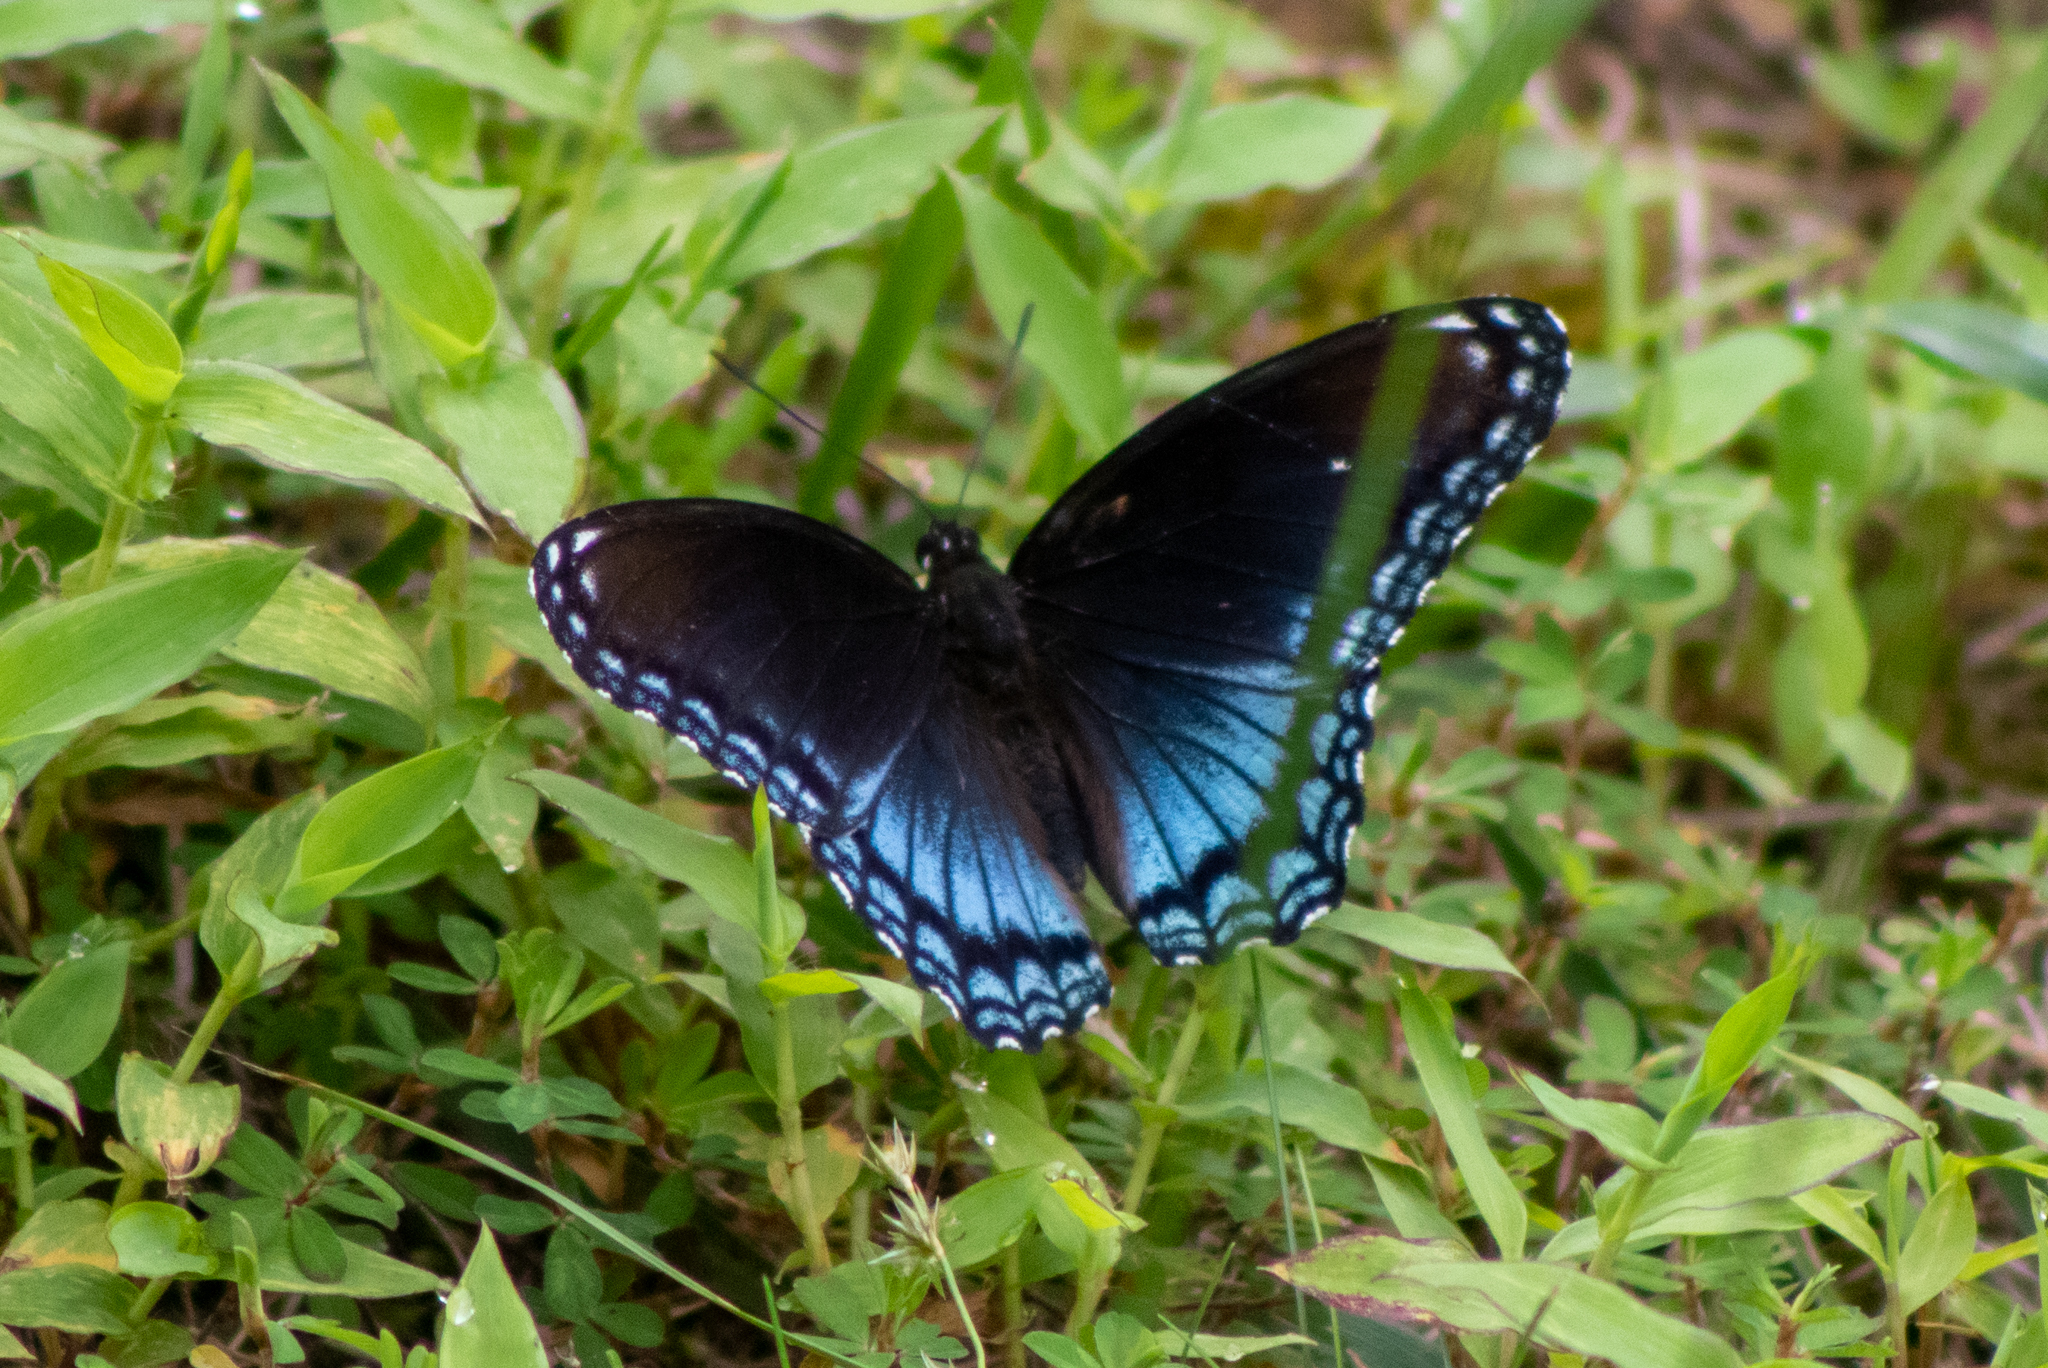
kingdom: Animalia
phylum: Arthropoda
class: Insecta
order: Lepidoptera
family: Nymphalidae
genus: Limenitis
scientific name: Limenitis arthemis
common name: Red-spotted admiral
